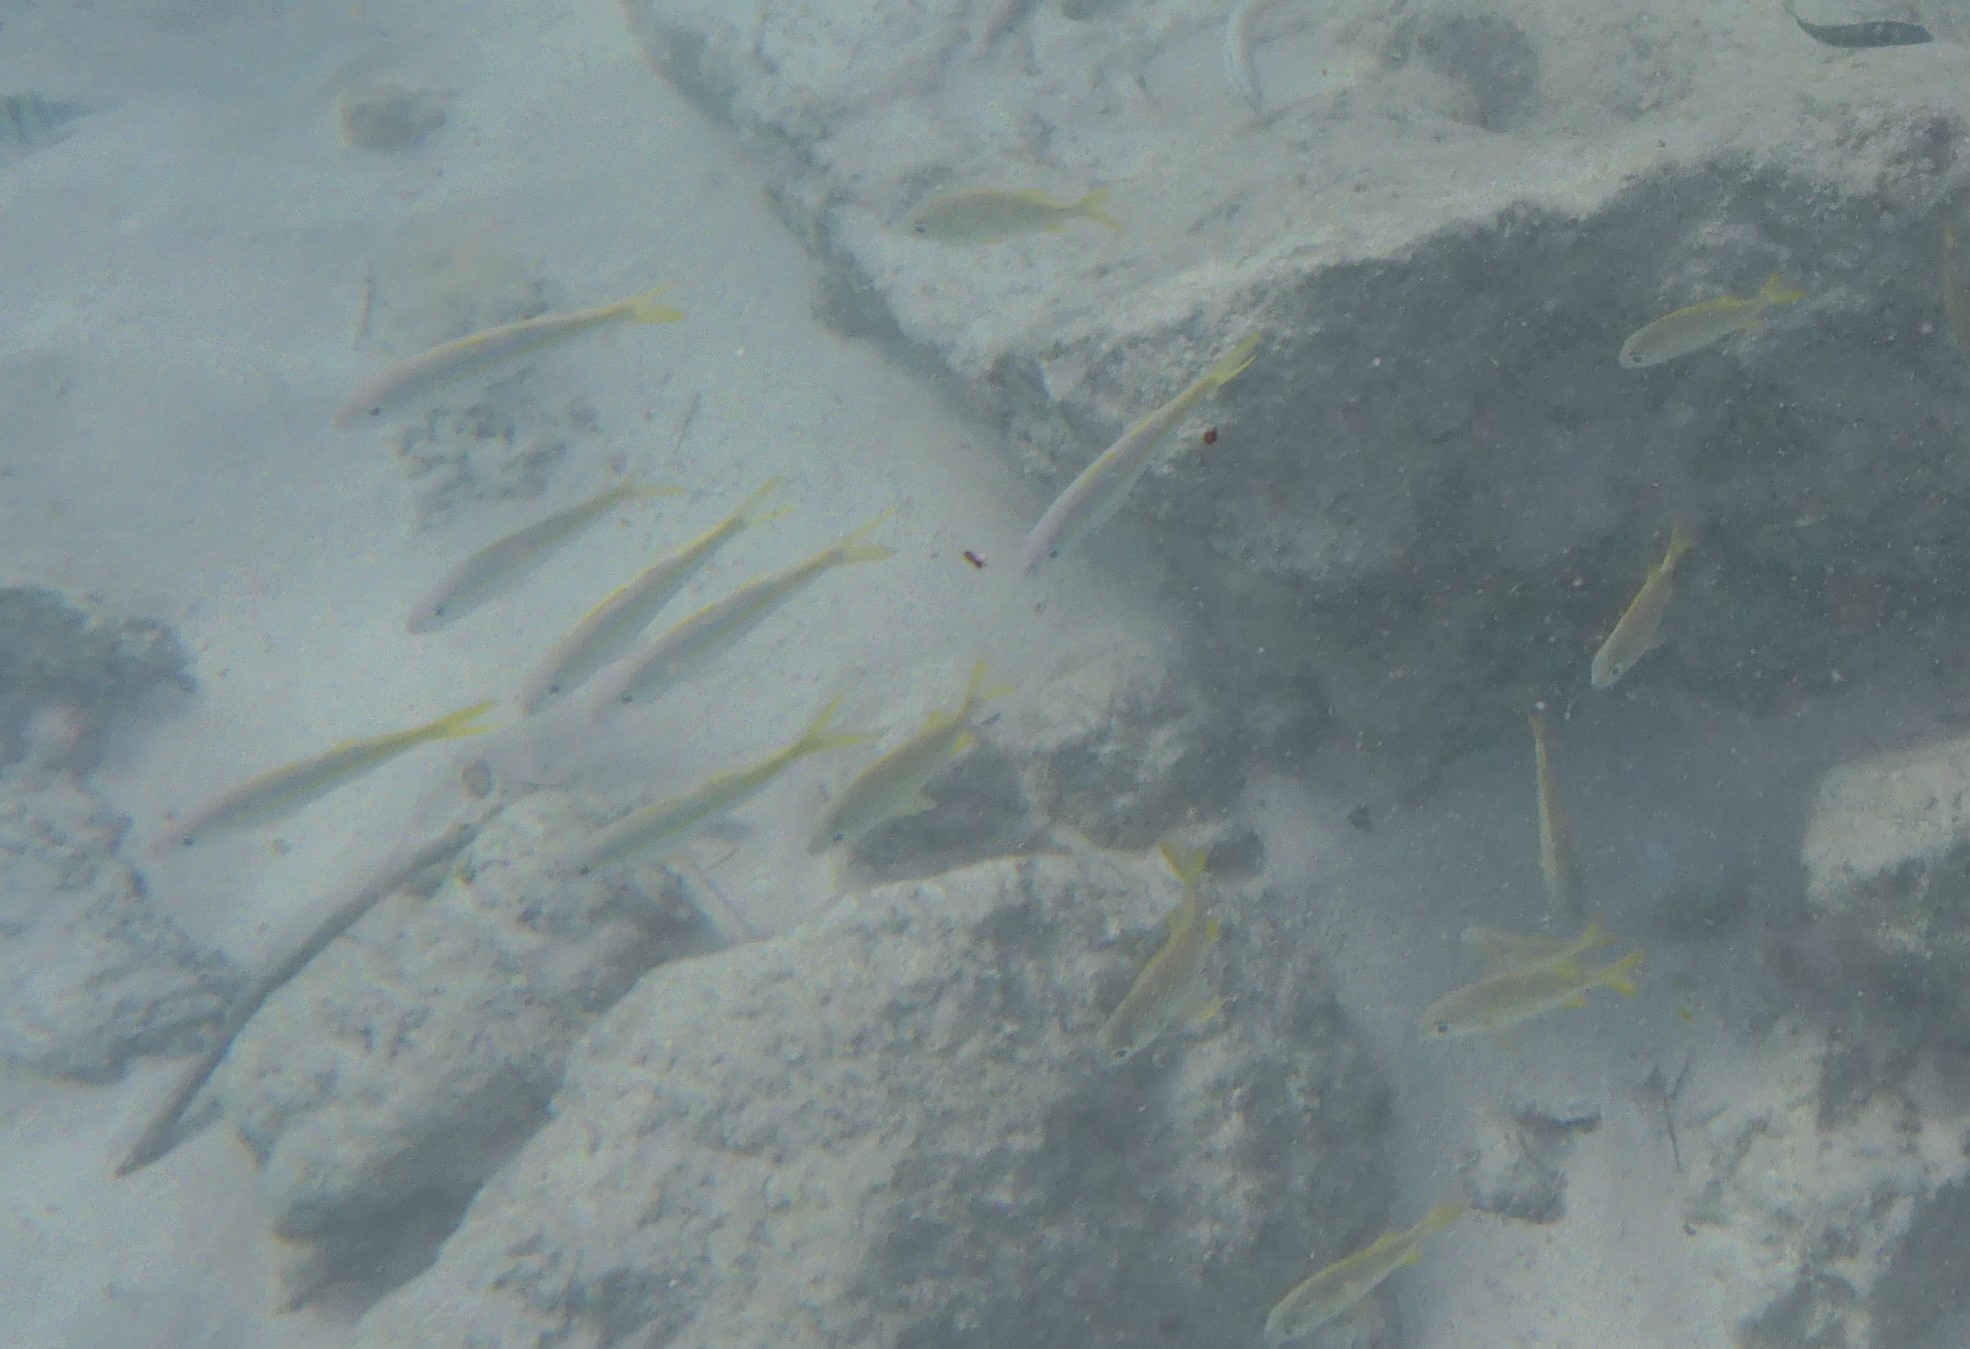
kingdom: Animalia
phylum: Chordata
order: Perciformes
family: Mullidae
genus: Mulloidichthys
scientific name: Mulloidichthys martinicus
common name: Yellow goatfish
